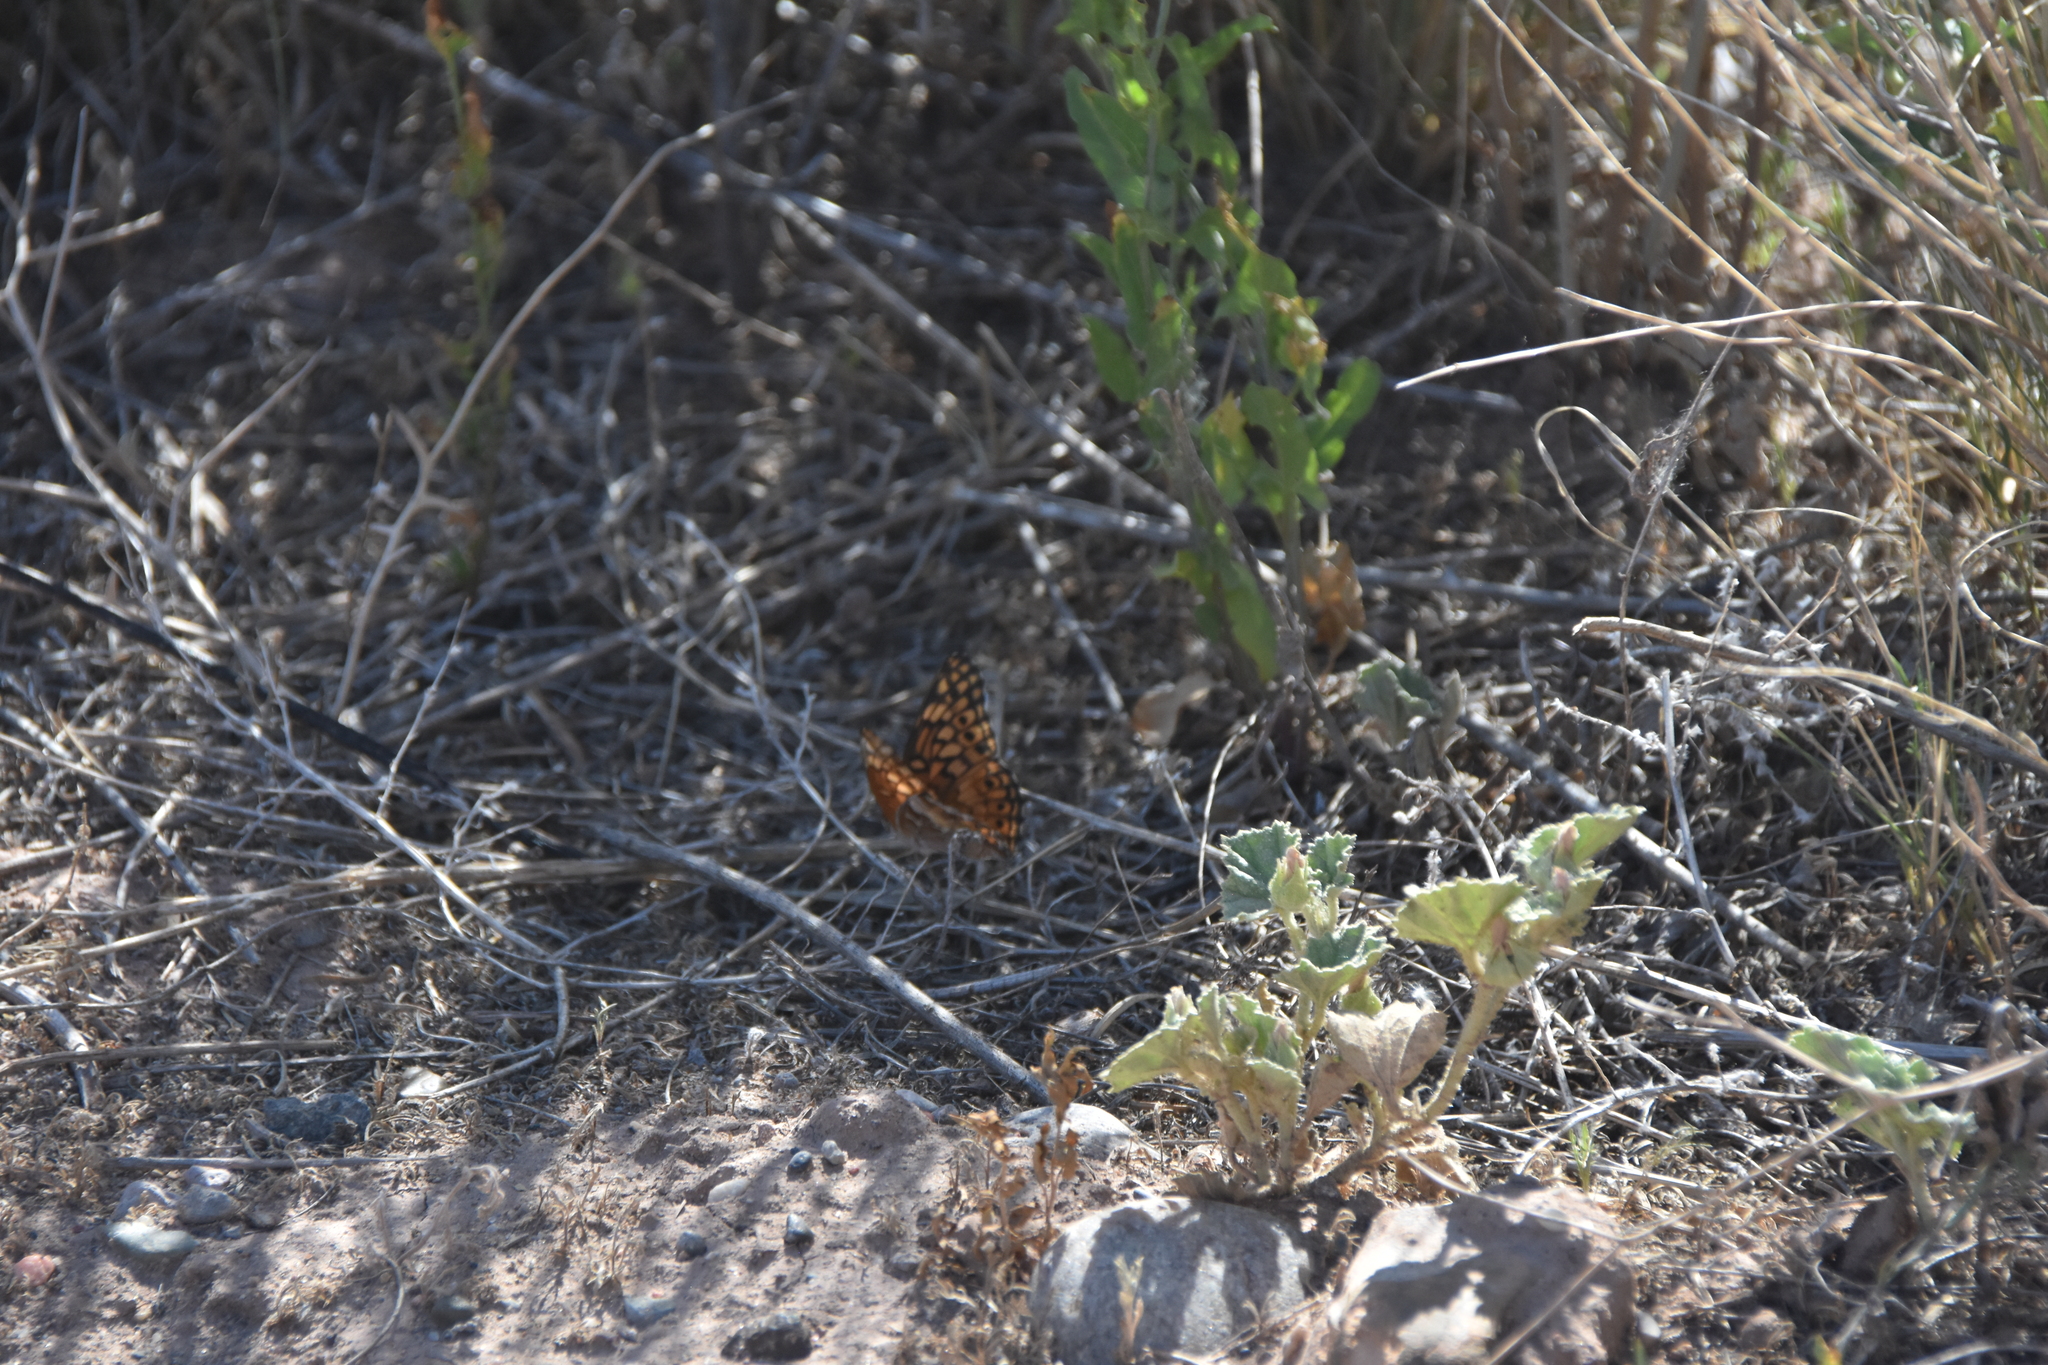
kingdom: Animalia
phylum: Arthropoda
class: Insecta
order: Lepidoptera
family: Nymphalidae
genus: Euptoieta
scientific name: Euptoieta claudia
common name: Variegated fritillary
